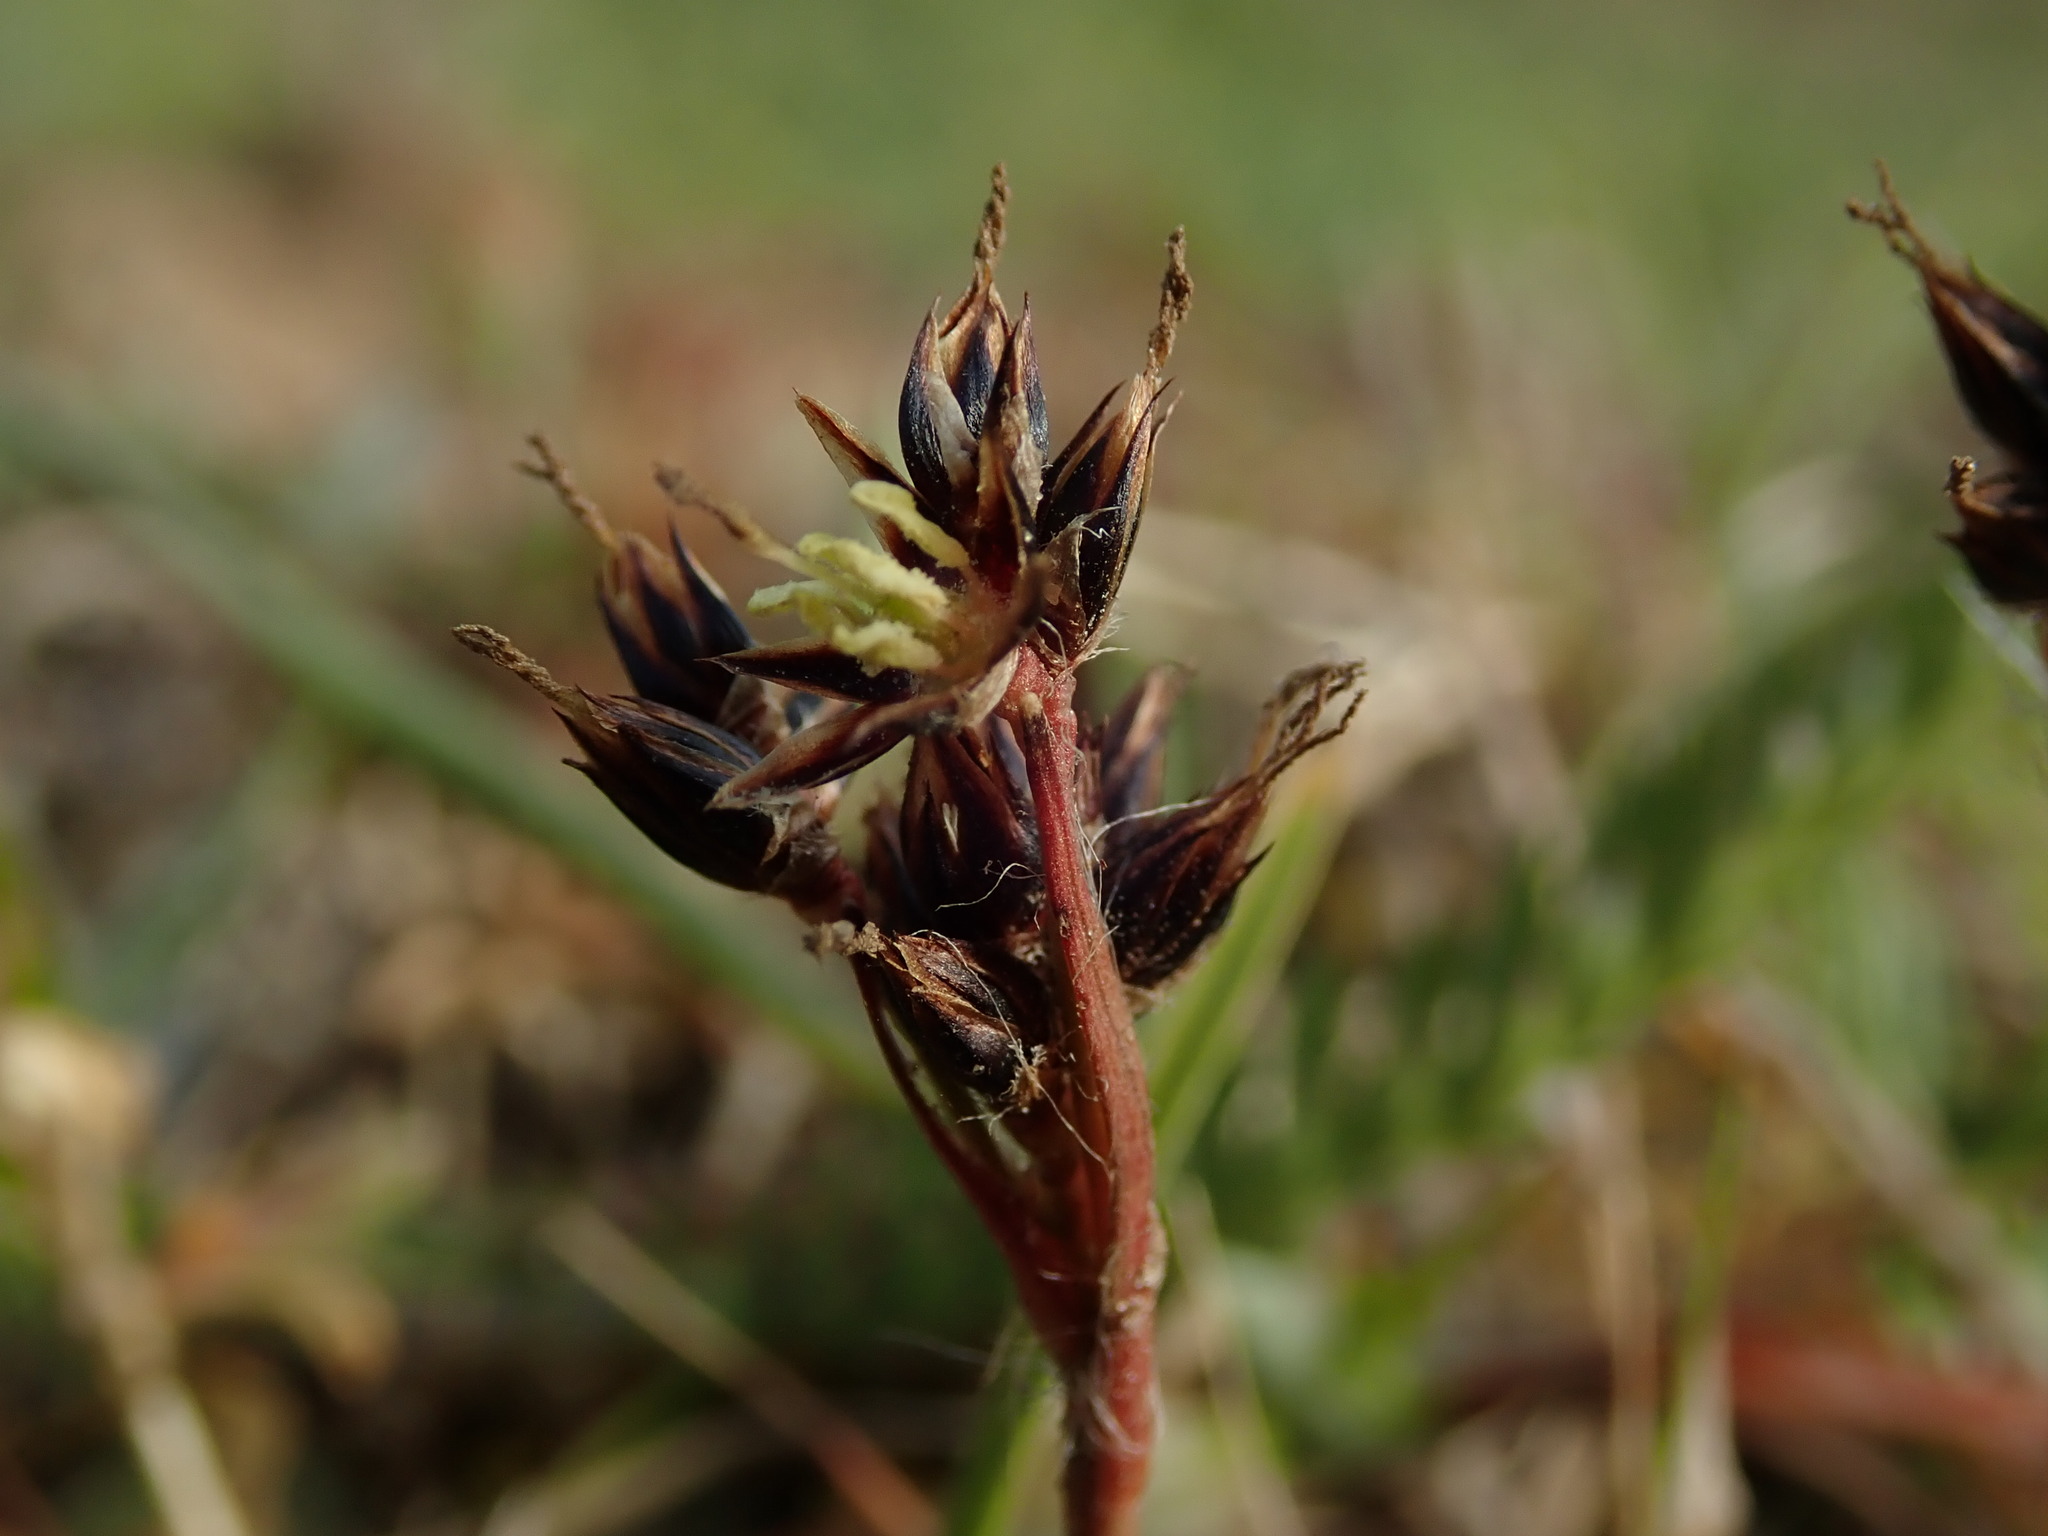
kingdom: Plantae
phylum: Tracheophyta
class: Liliopsida
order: Poales
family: Juncaceae
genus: Luzula
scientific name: Luzula campestris
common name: Field wood-rush
